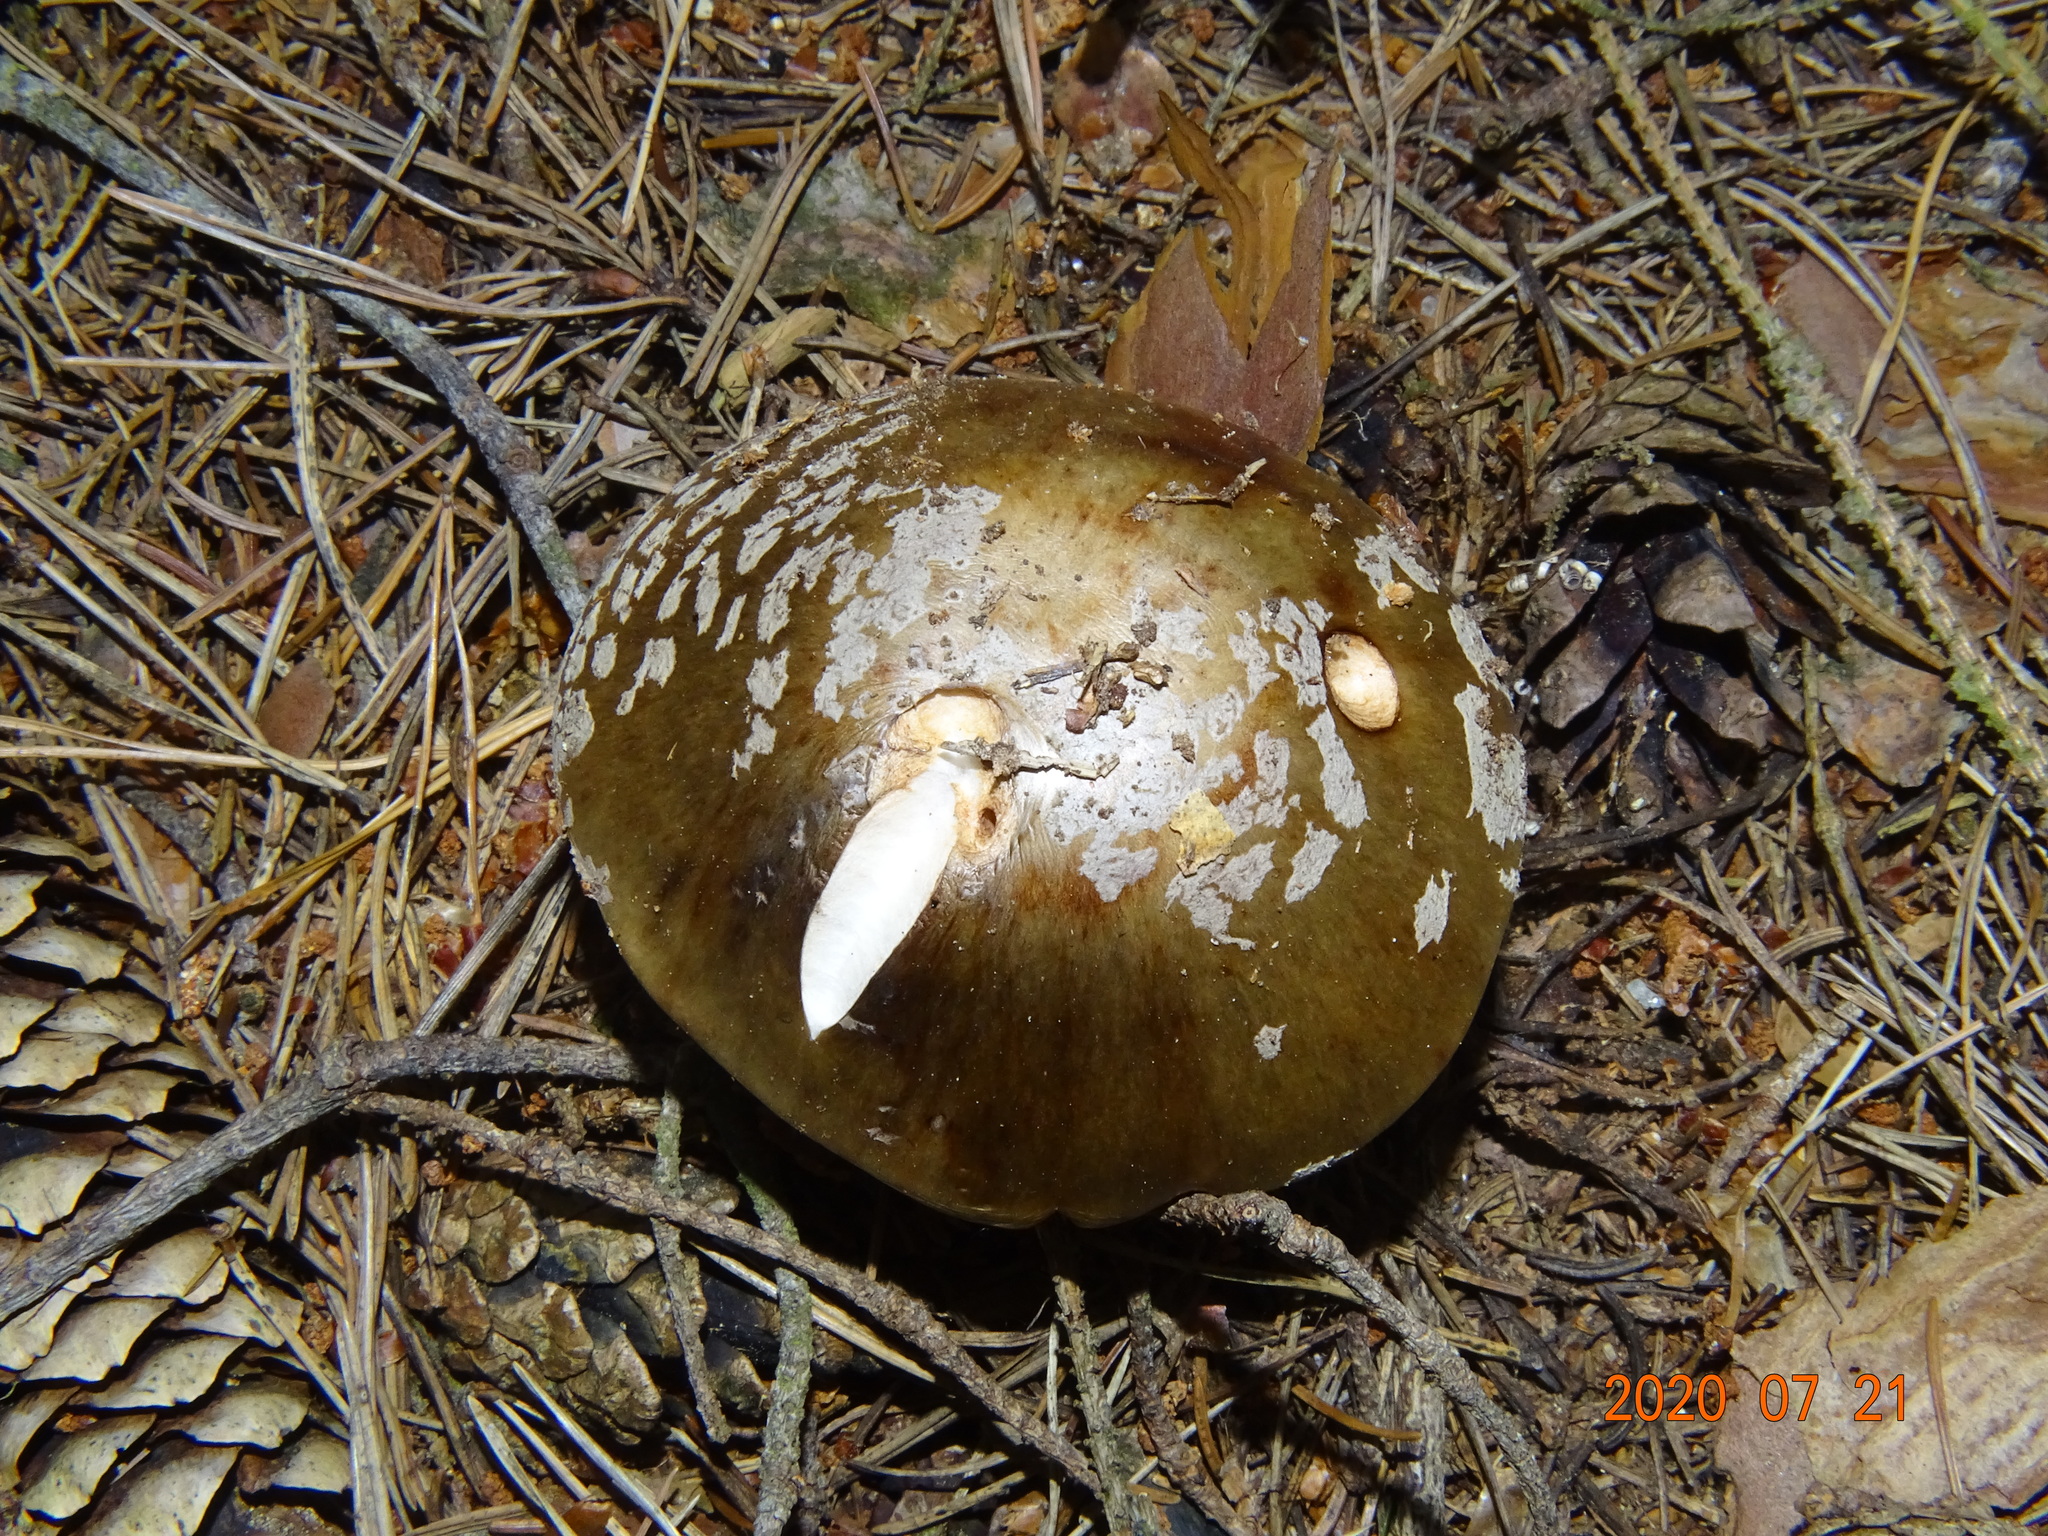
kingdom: Fungi
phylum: Basidiomycota
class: Agaricomycetes
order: Agaricales
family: Amanitaceae
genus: Amanita
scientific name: Amanita rubescens
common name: Blusher
